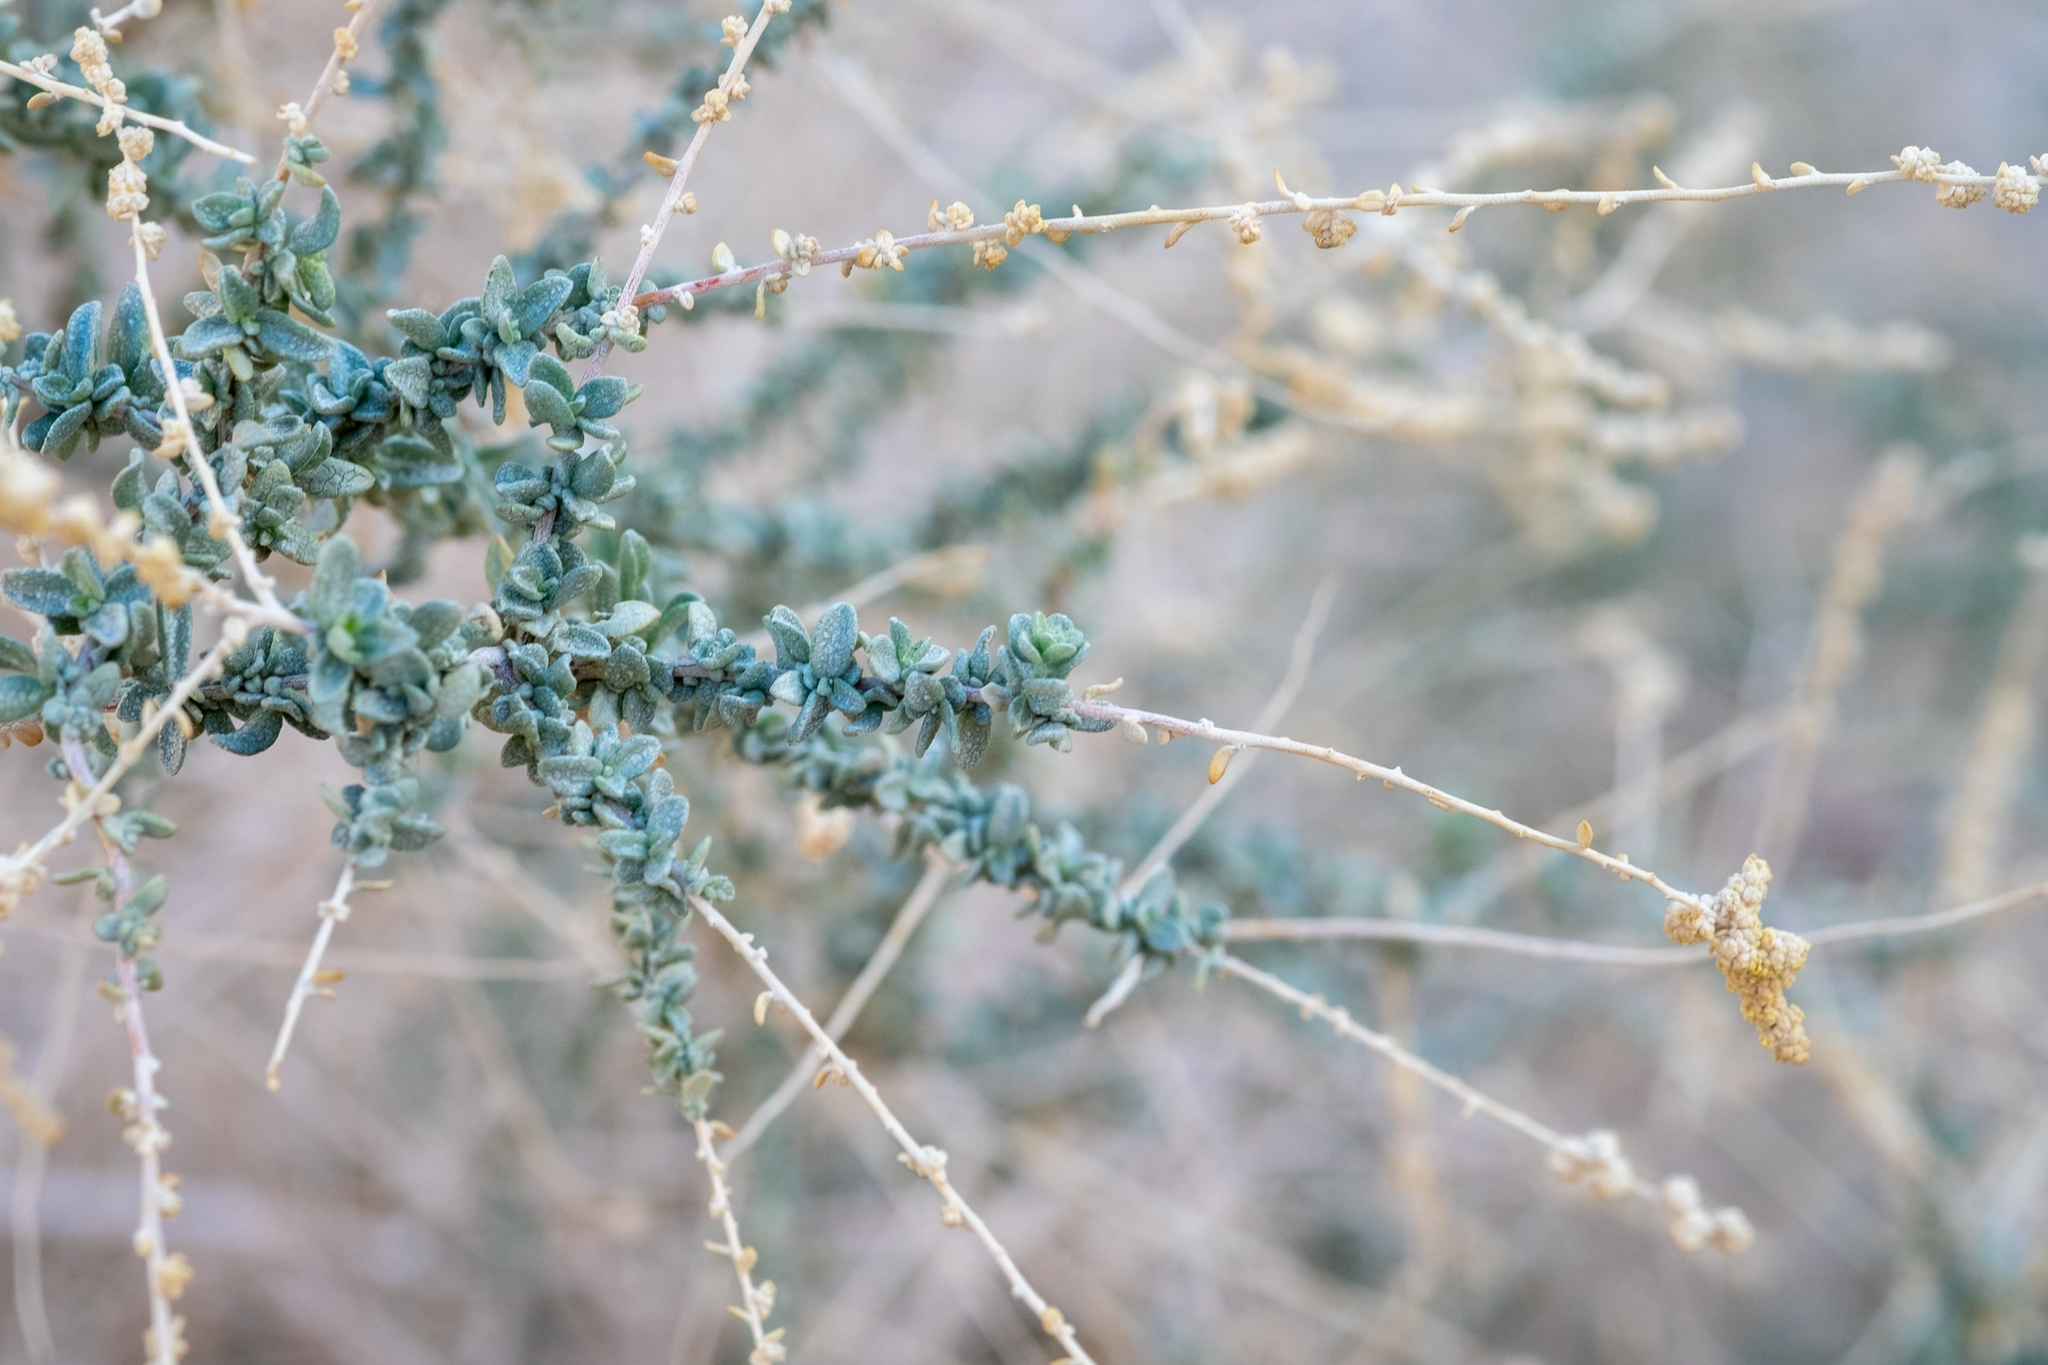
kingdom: Plantae
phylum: Tracheophyta
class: Magnoliopsida
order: Caryophyllales
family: Amaranthaceae
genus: Atriplex
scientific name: Atriplex polycarpa
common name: Desert saltbush
